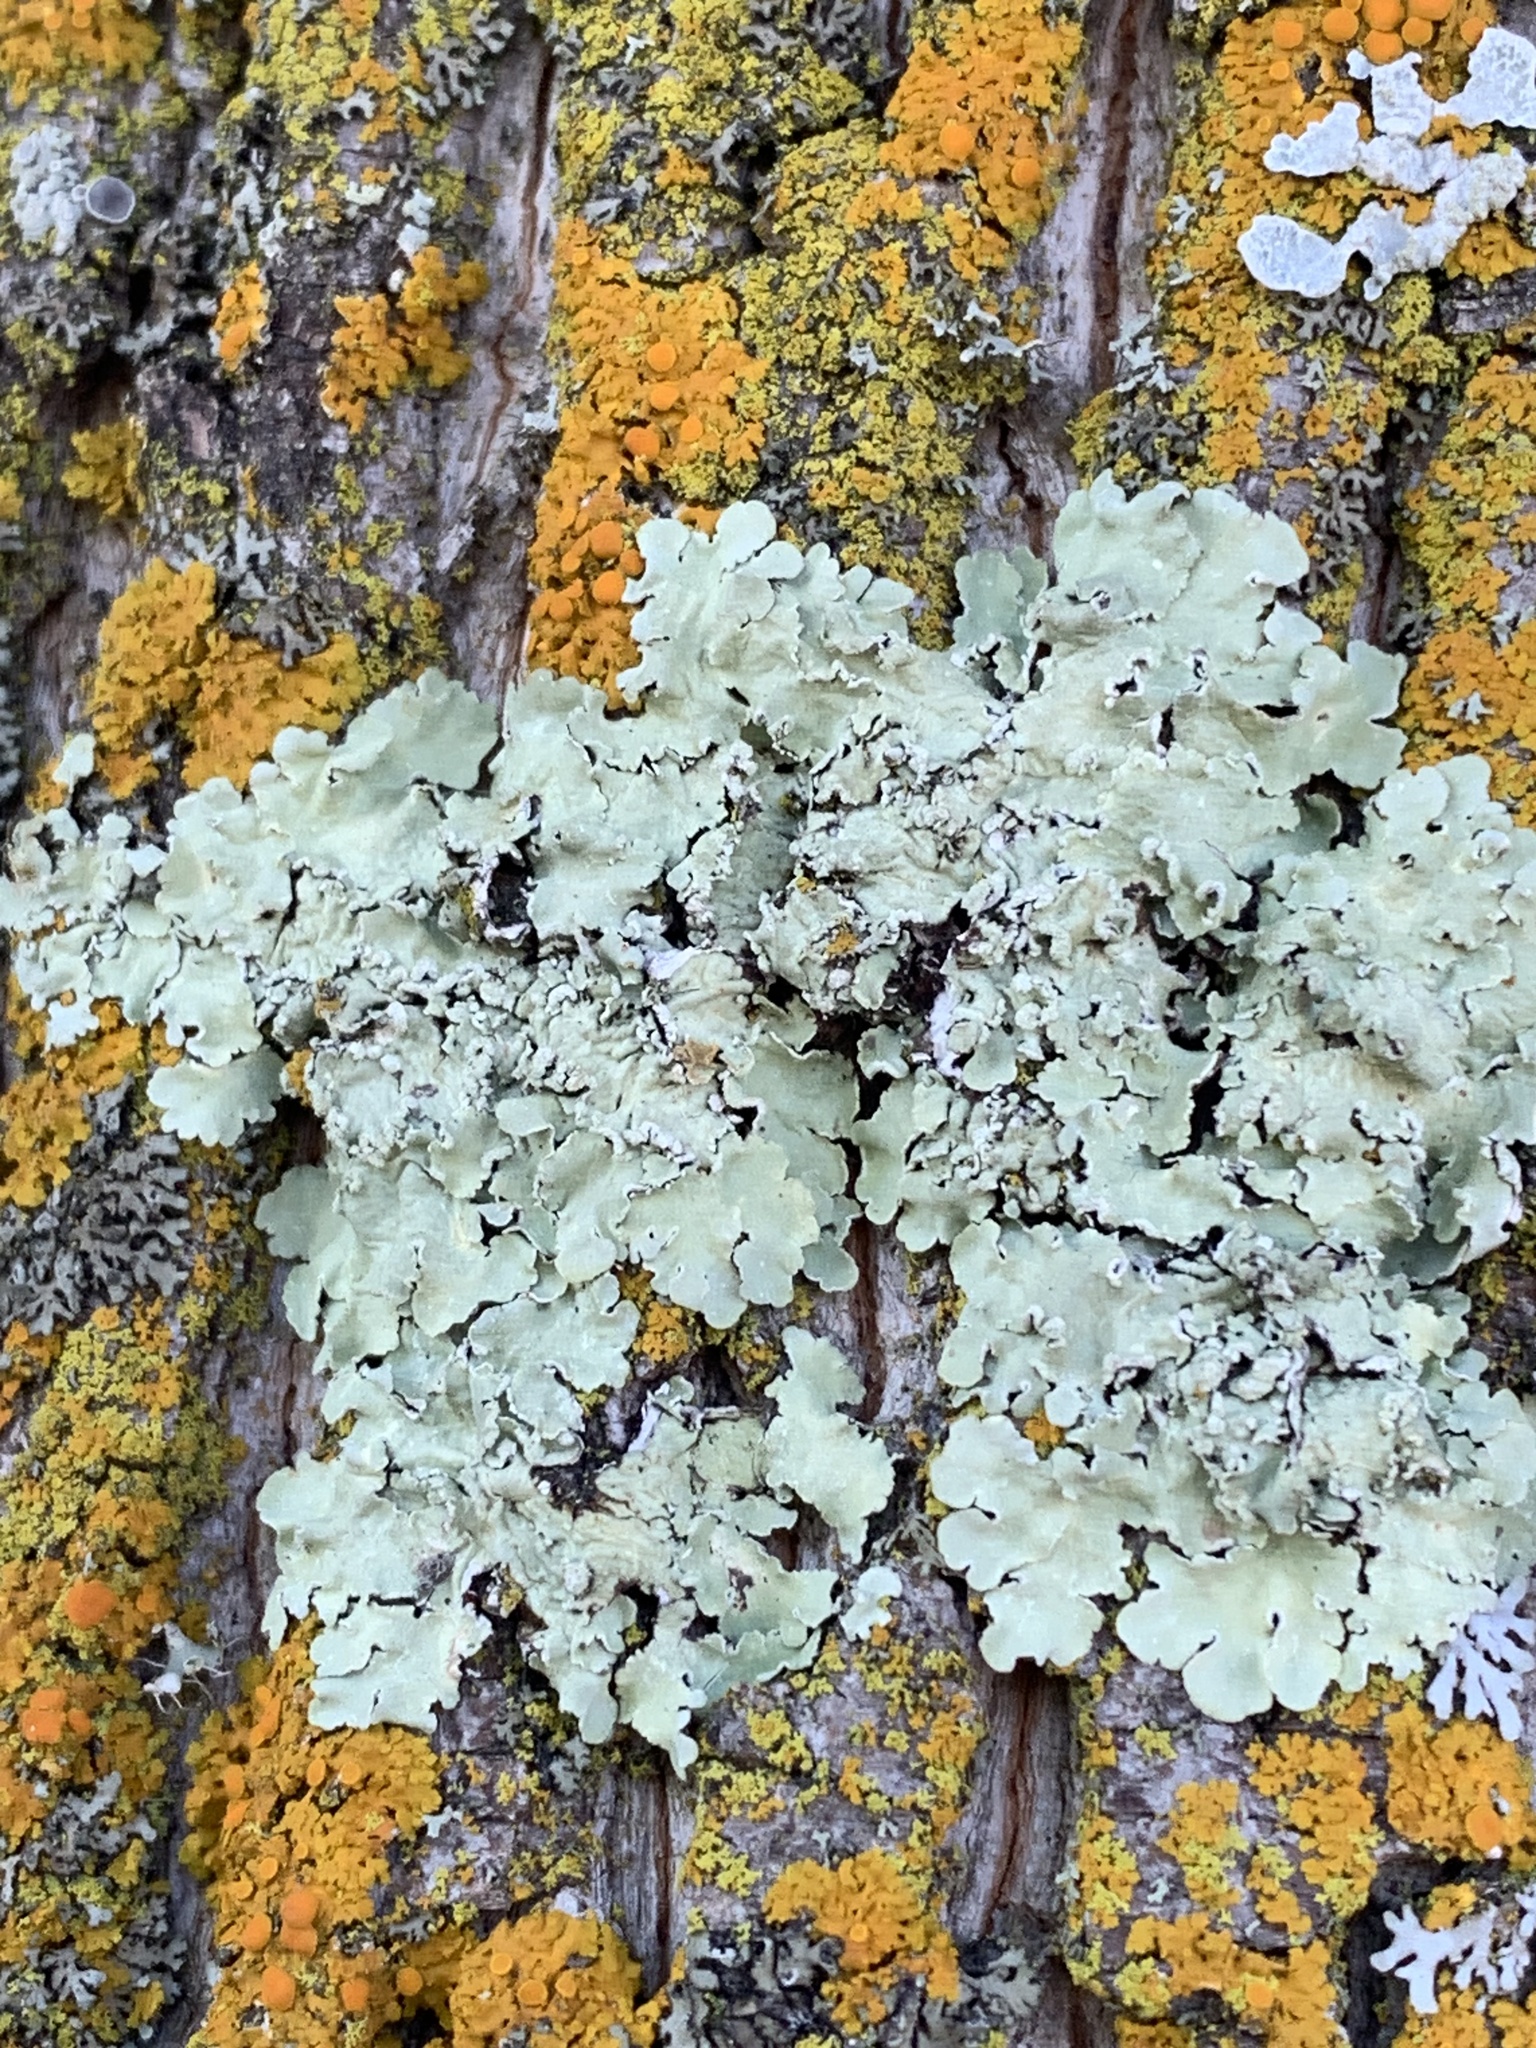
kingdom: Fungi
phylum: Ascomycota
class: Lecanoromycetes
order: Lecanorales
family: Parmeliaceae
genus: Flavopunctelia
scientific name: Flavopunctelia soredica
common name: Powder-edged speckled greenshield
